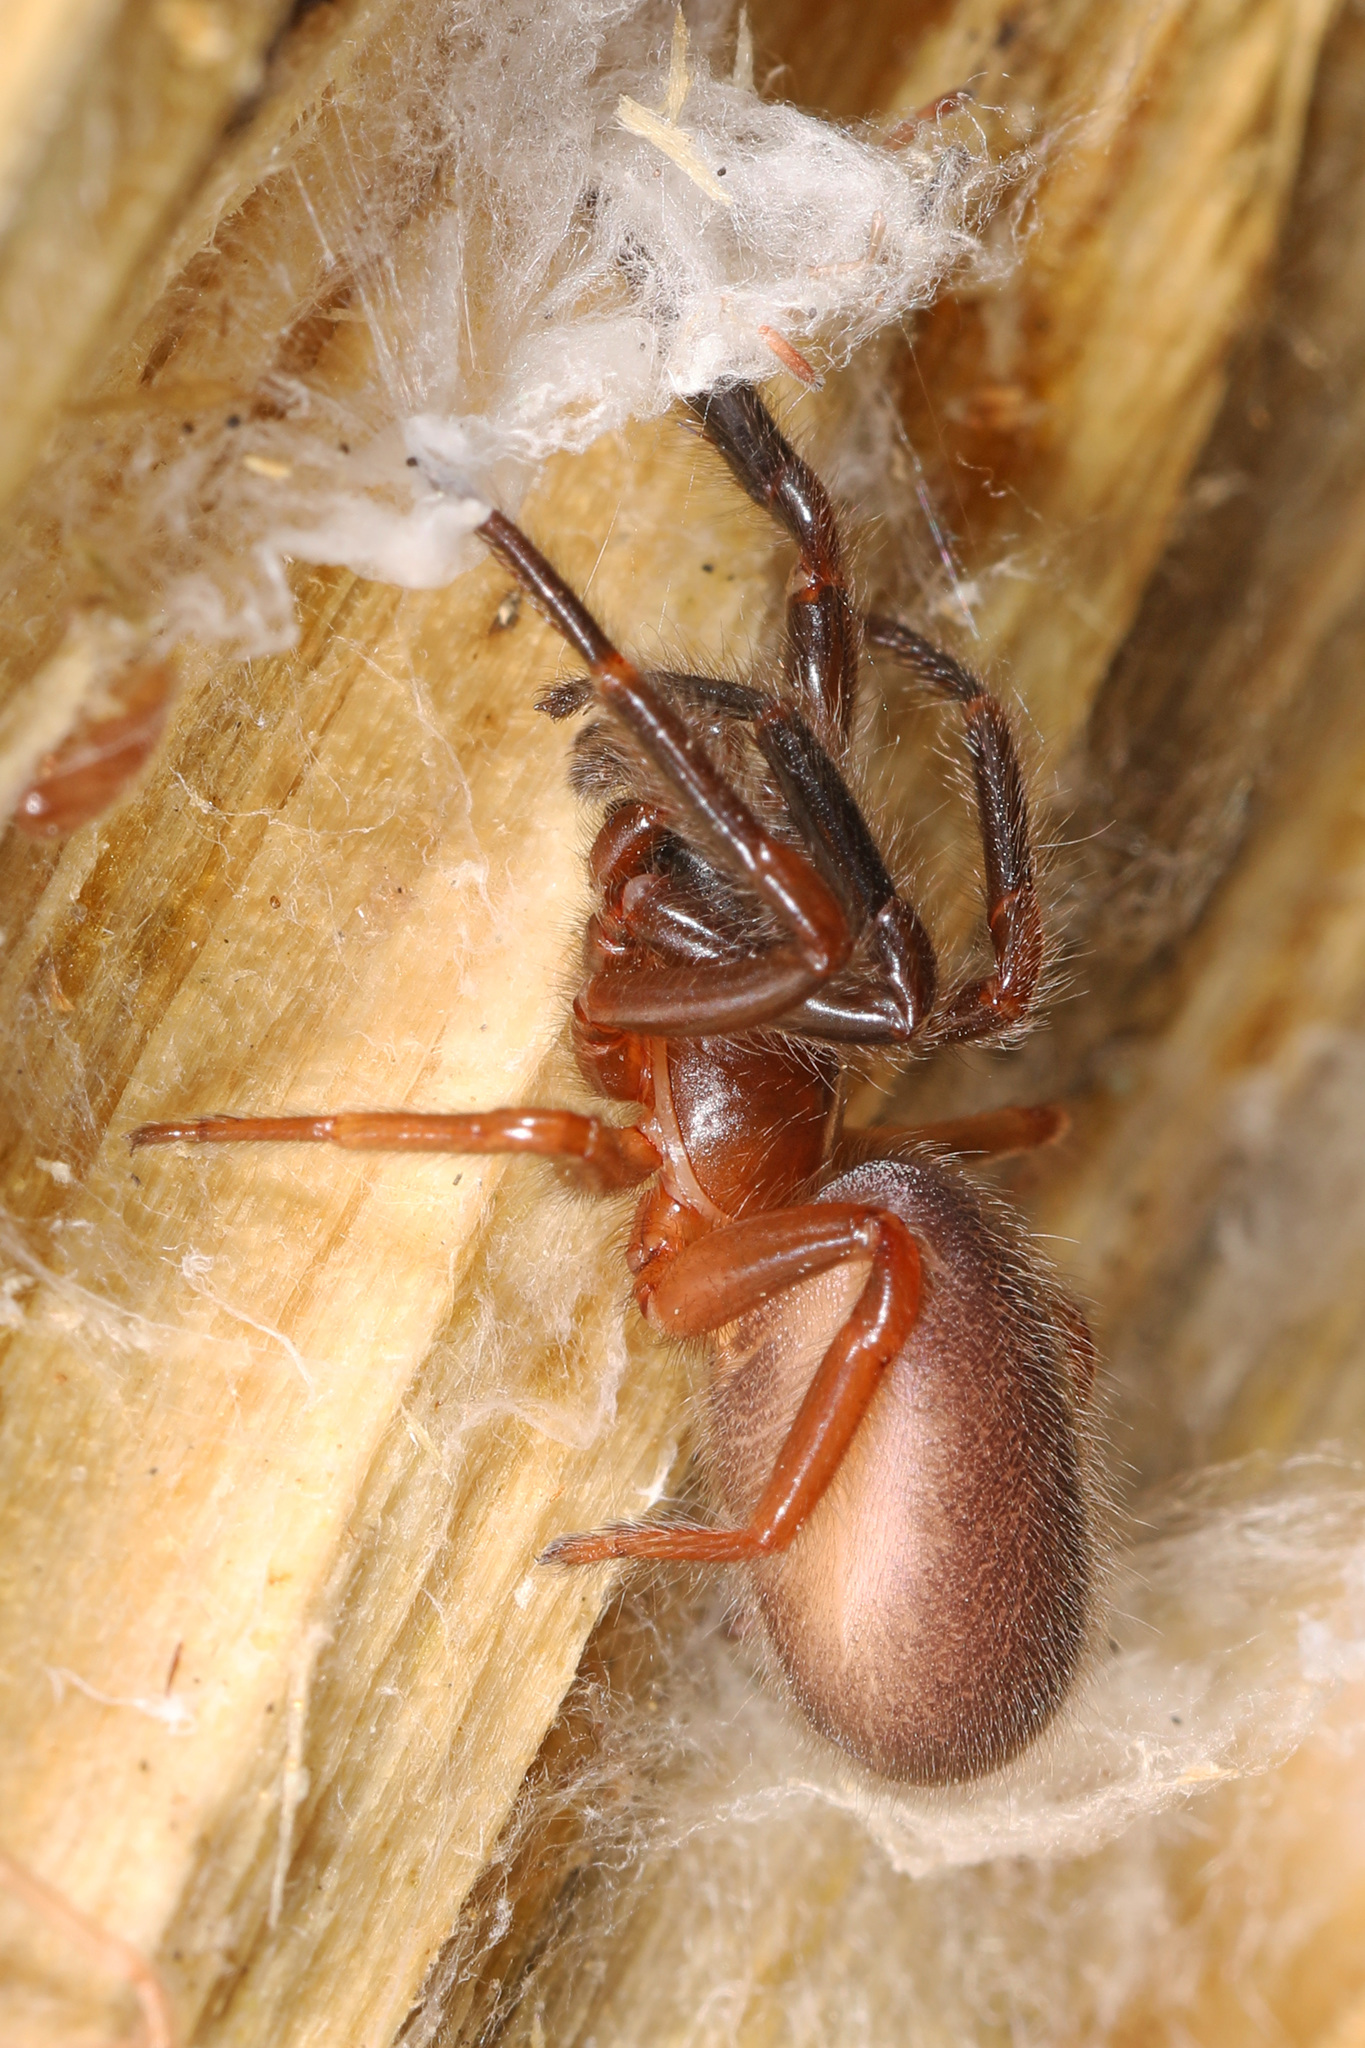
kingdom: Animalia
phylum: Arthropoda
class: Arachnida
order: Araneae
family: Segestriidae
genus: Ariadna
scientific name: Ariadna bicolor
